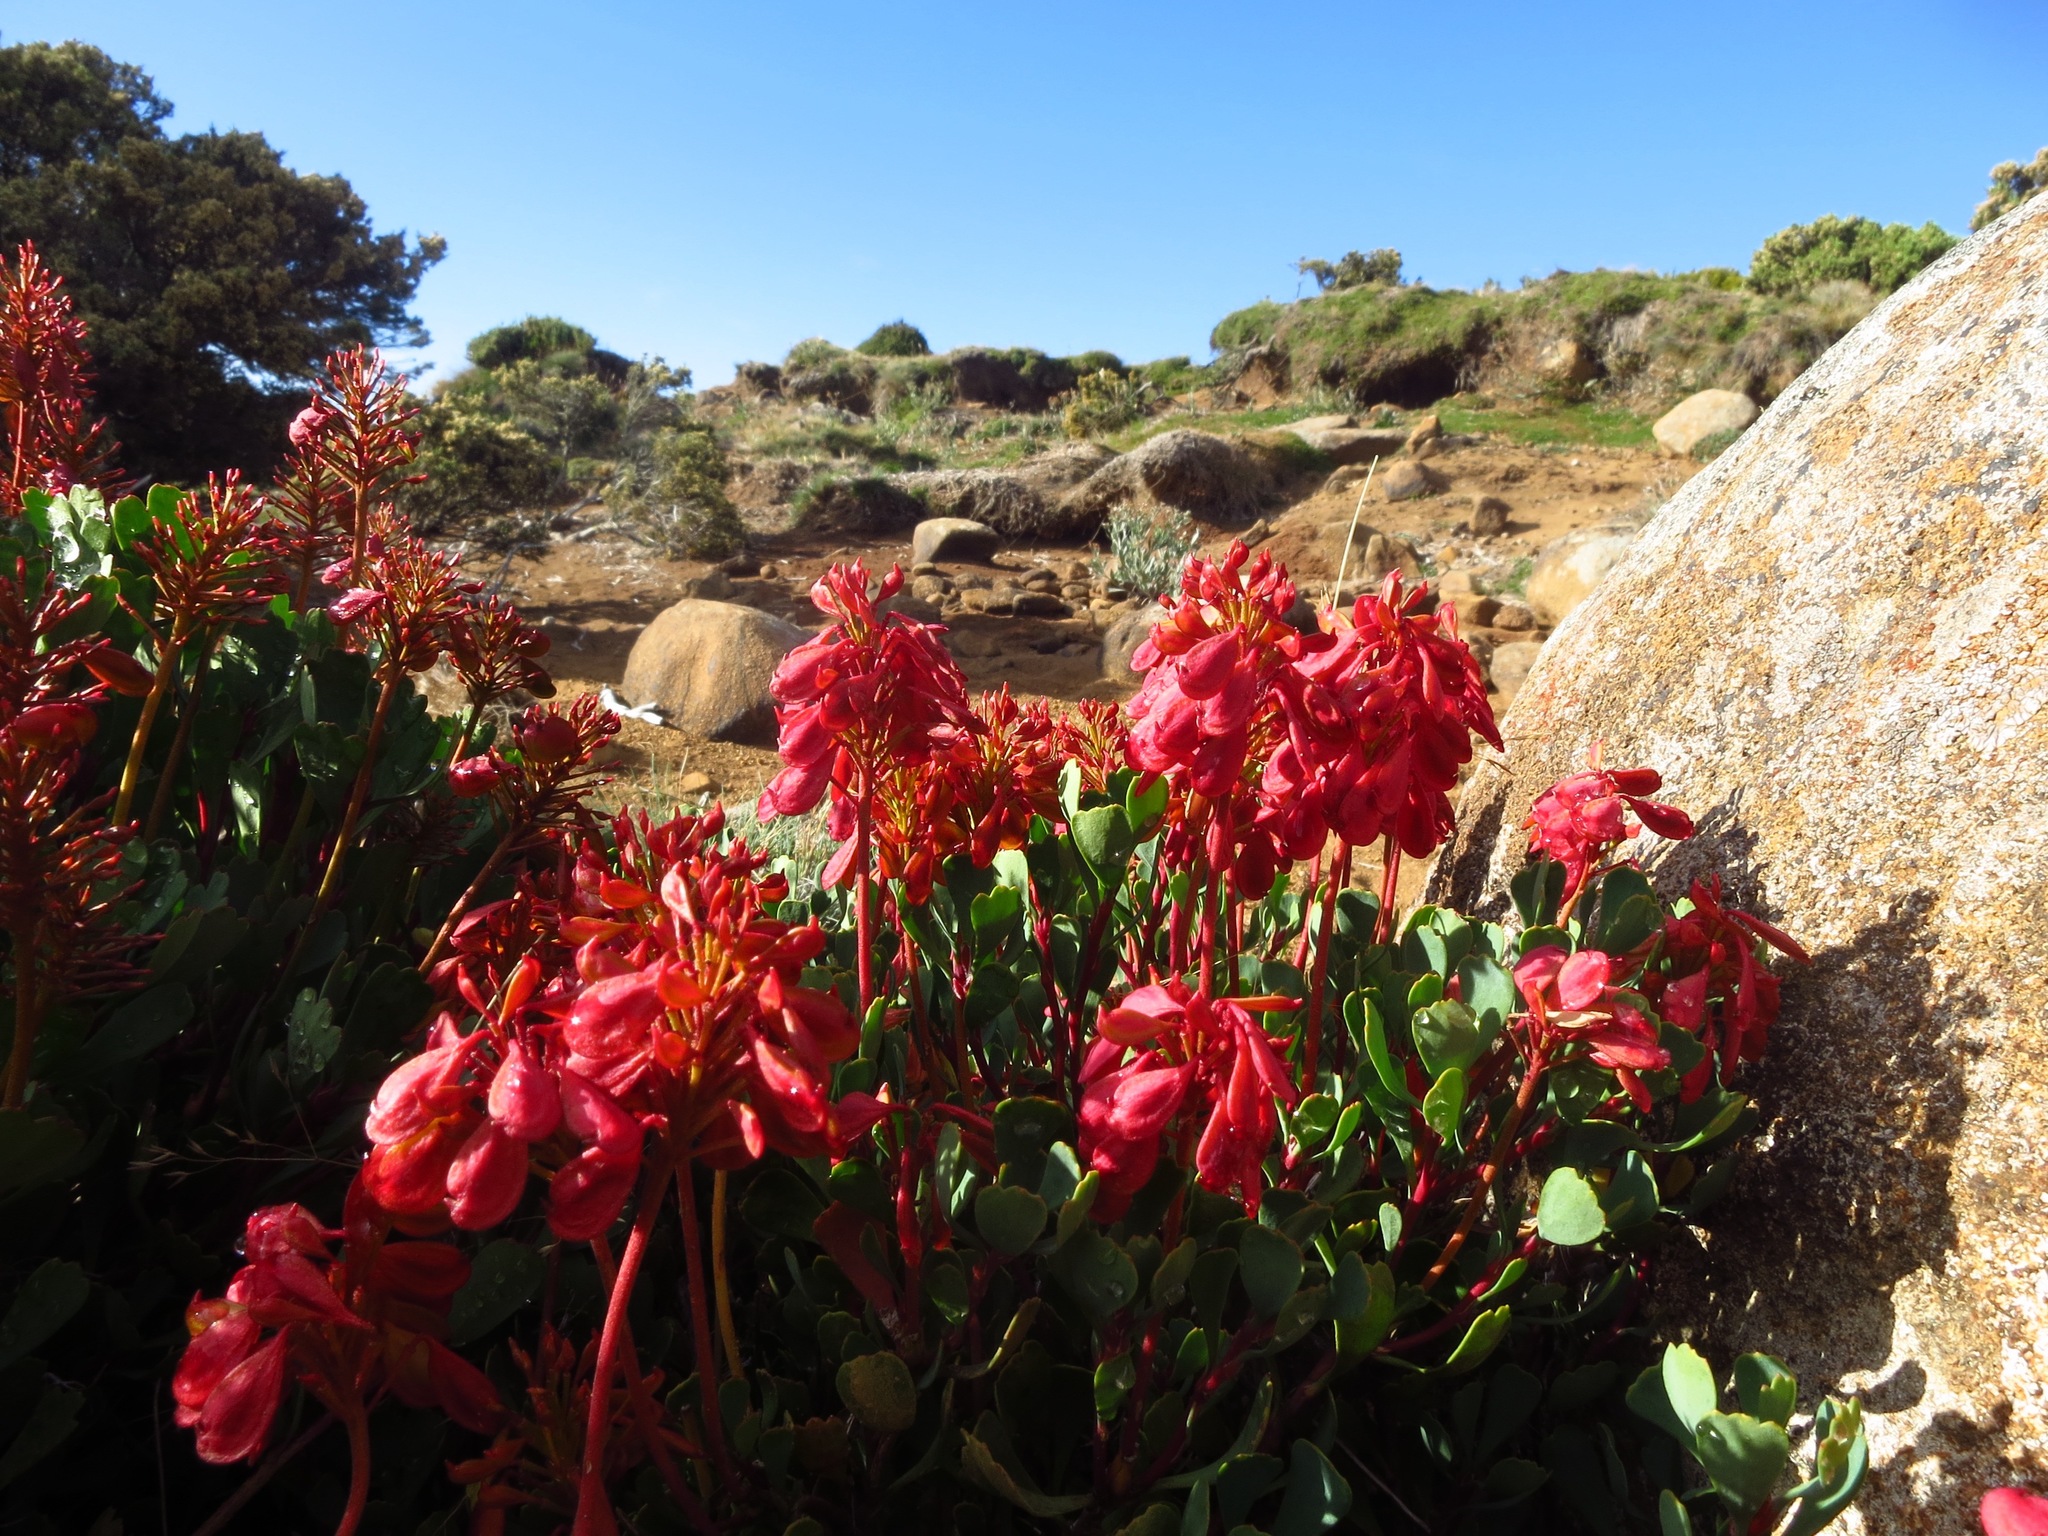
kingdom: Plantae
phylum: Tracheophyta
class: Magnoliopsida
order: Proteales
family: Proteaceae
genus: Bellendena
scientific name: Bellendena montana
